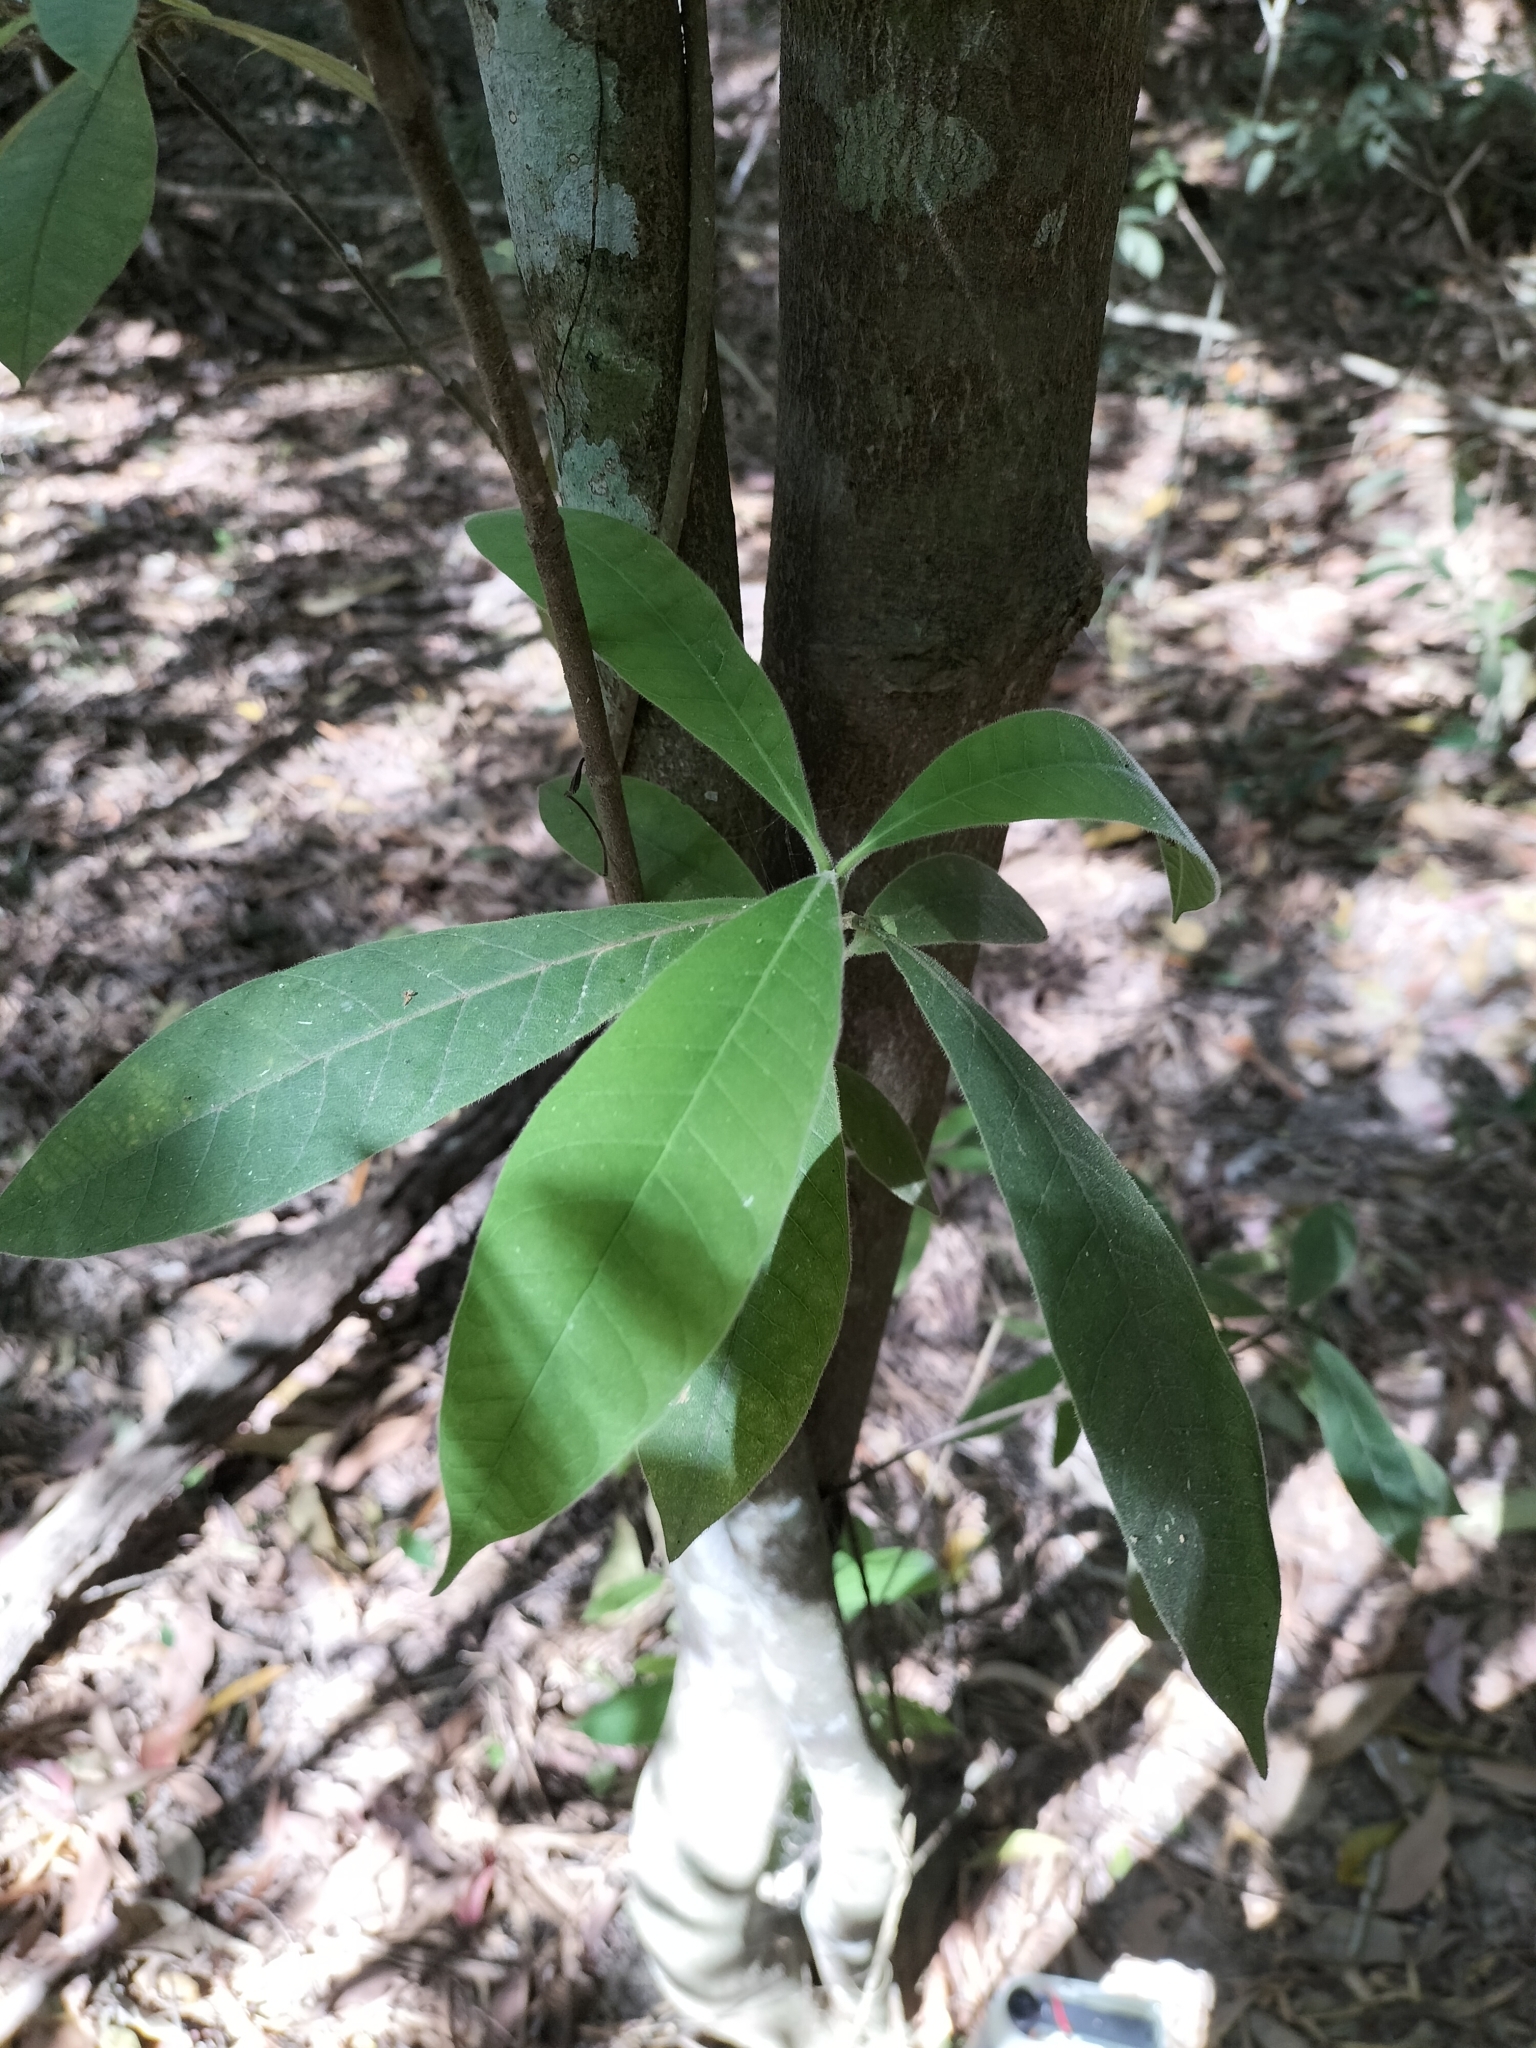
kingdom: Plantae
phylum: Tracheophyta
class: Magnoliopsida
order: Gentianales
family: Apocynaceae
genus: Alstonia
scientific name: Alstonia muelleriana
